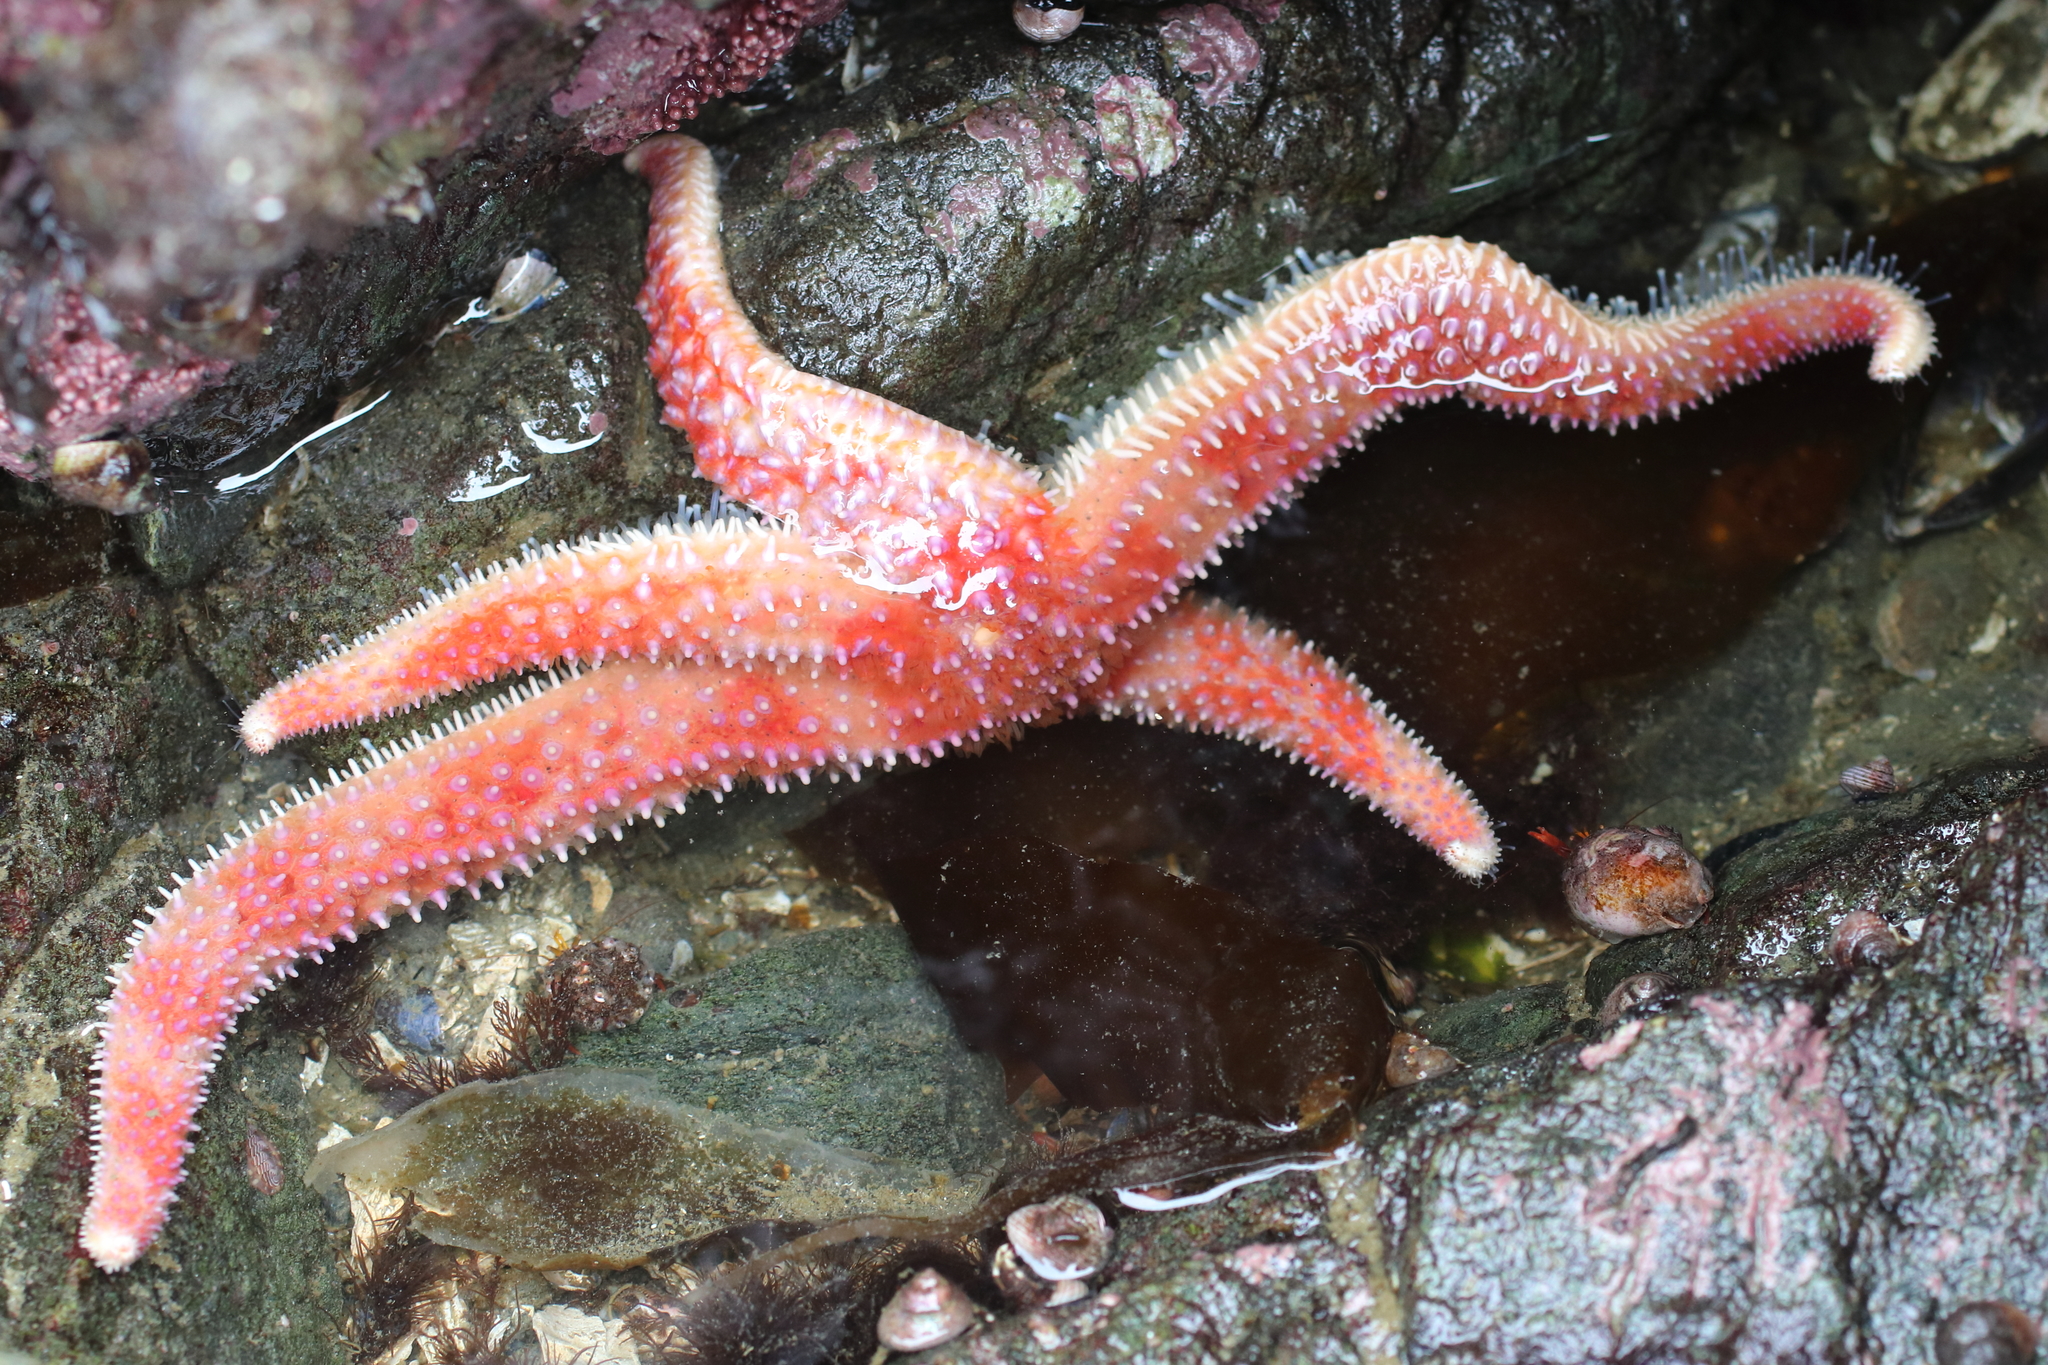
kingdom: Animalia
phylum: Echinodermata
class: Asteroidea
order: Forcipulatida
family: Asteriidae
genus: Orthasterias
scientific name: Orthasterias koehleri
